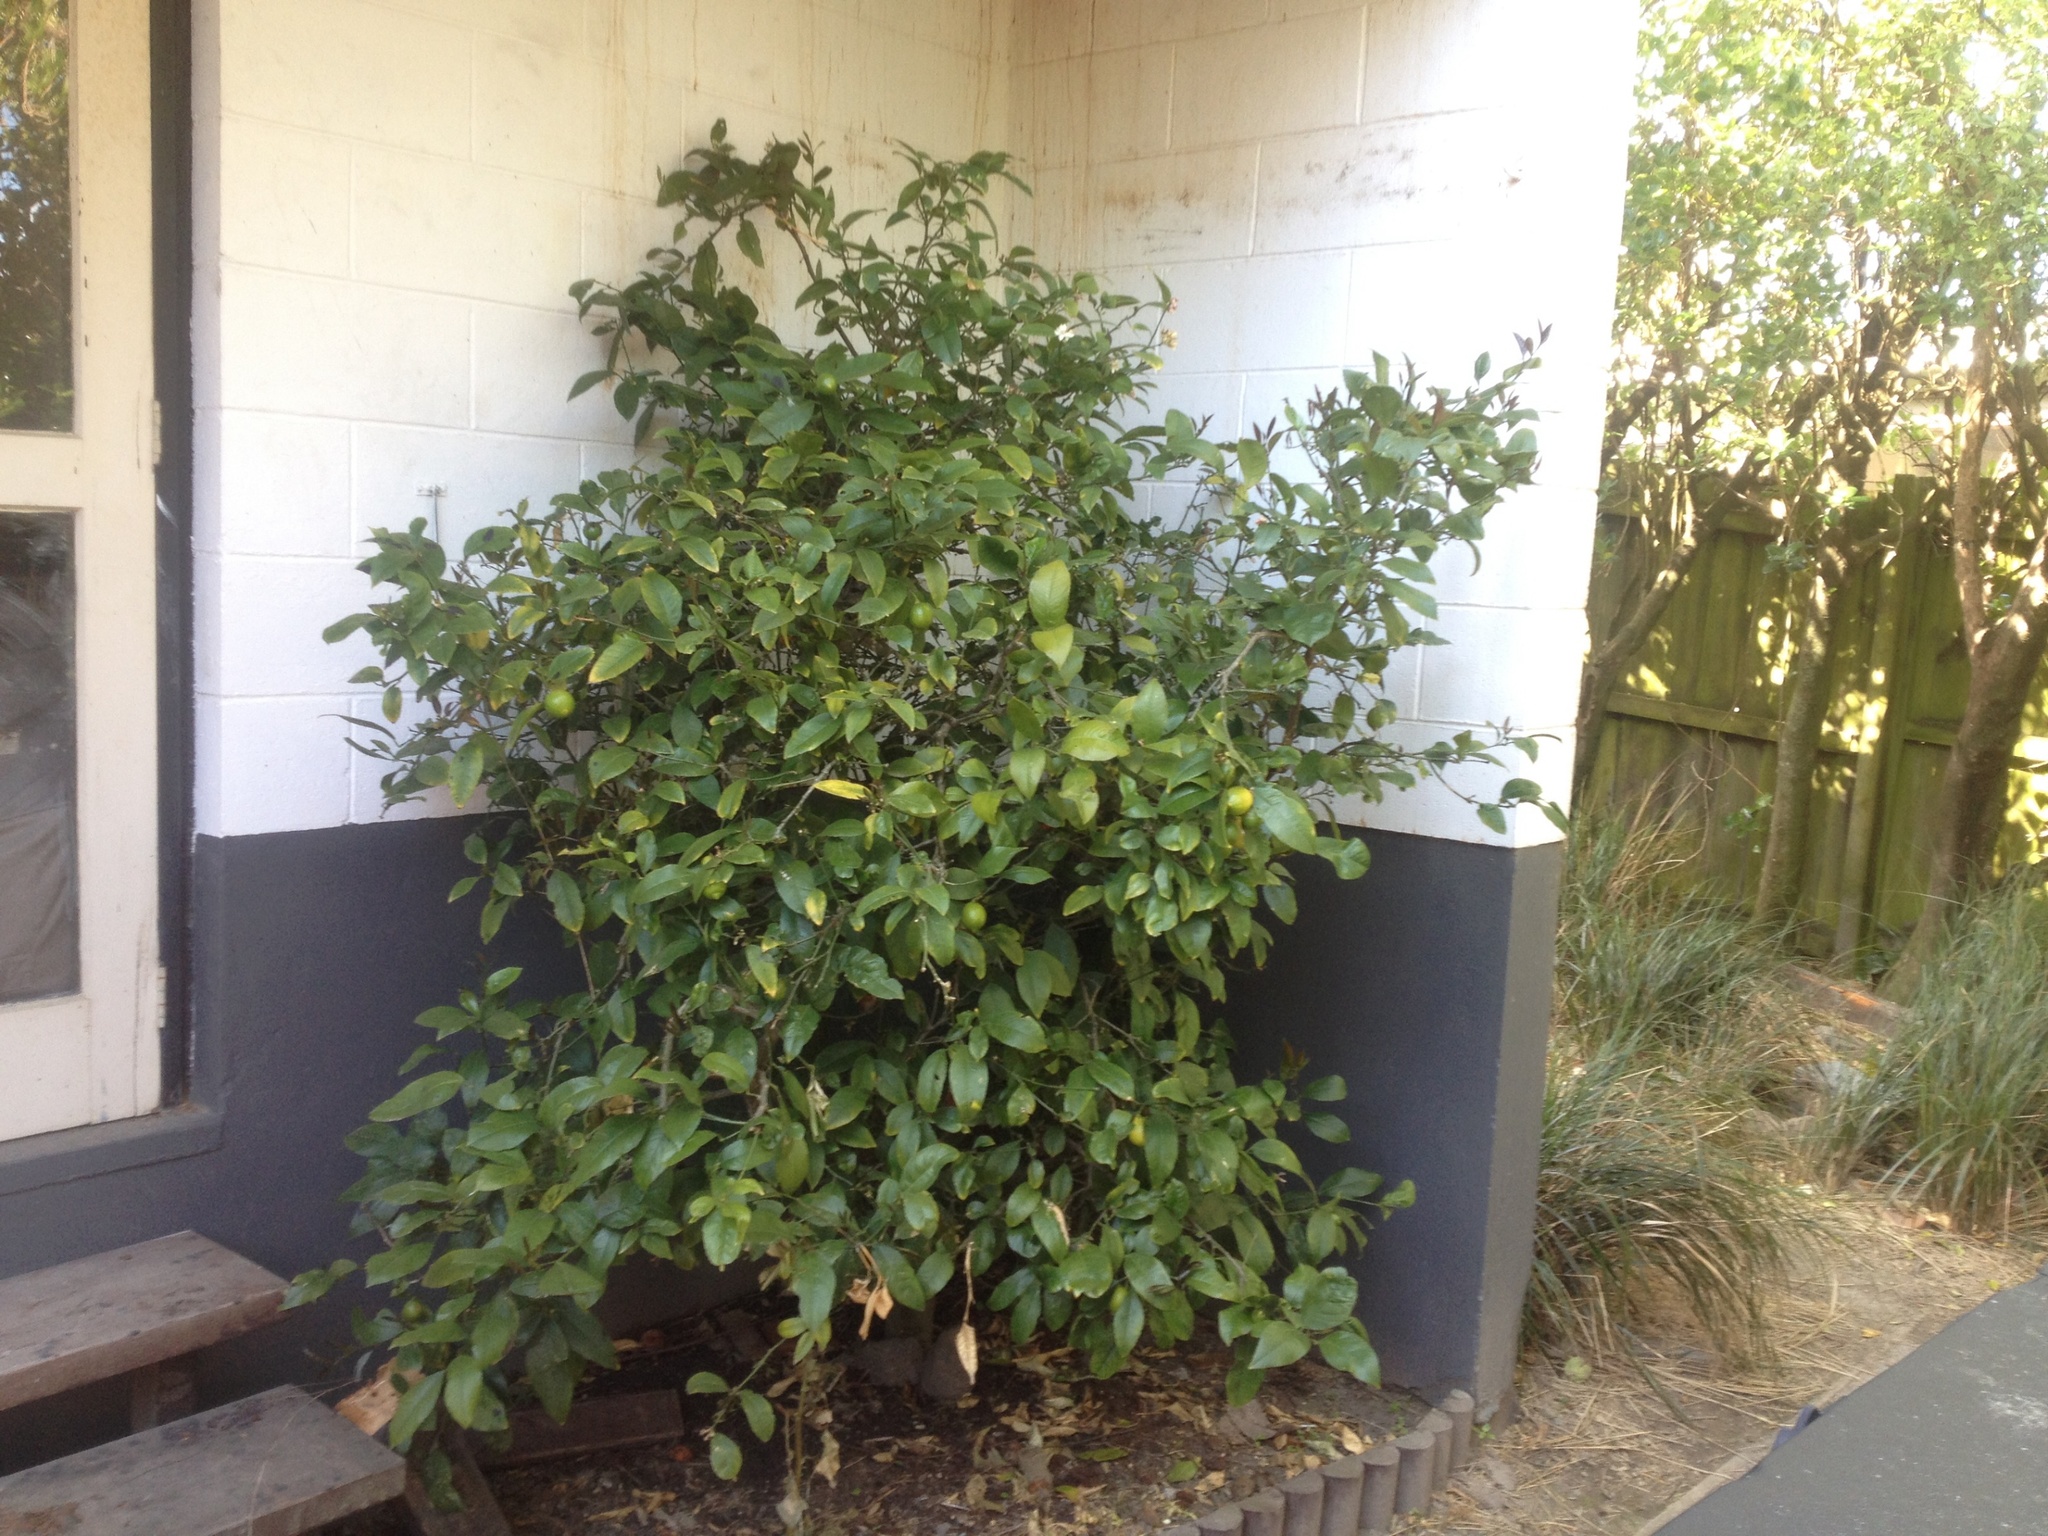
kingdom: Animalia
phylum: Chordata
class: Aves
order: Passeriformes
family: Turdidae
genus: Turdus
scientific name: Turdus merula
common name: Common blackbird
